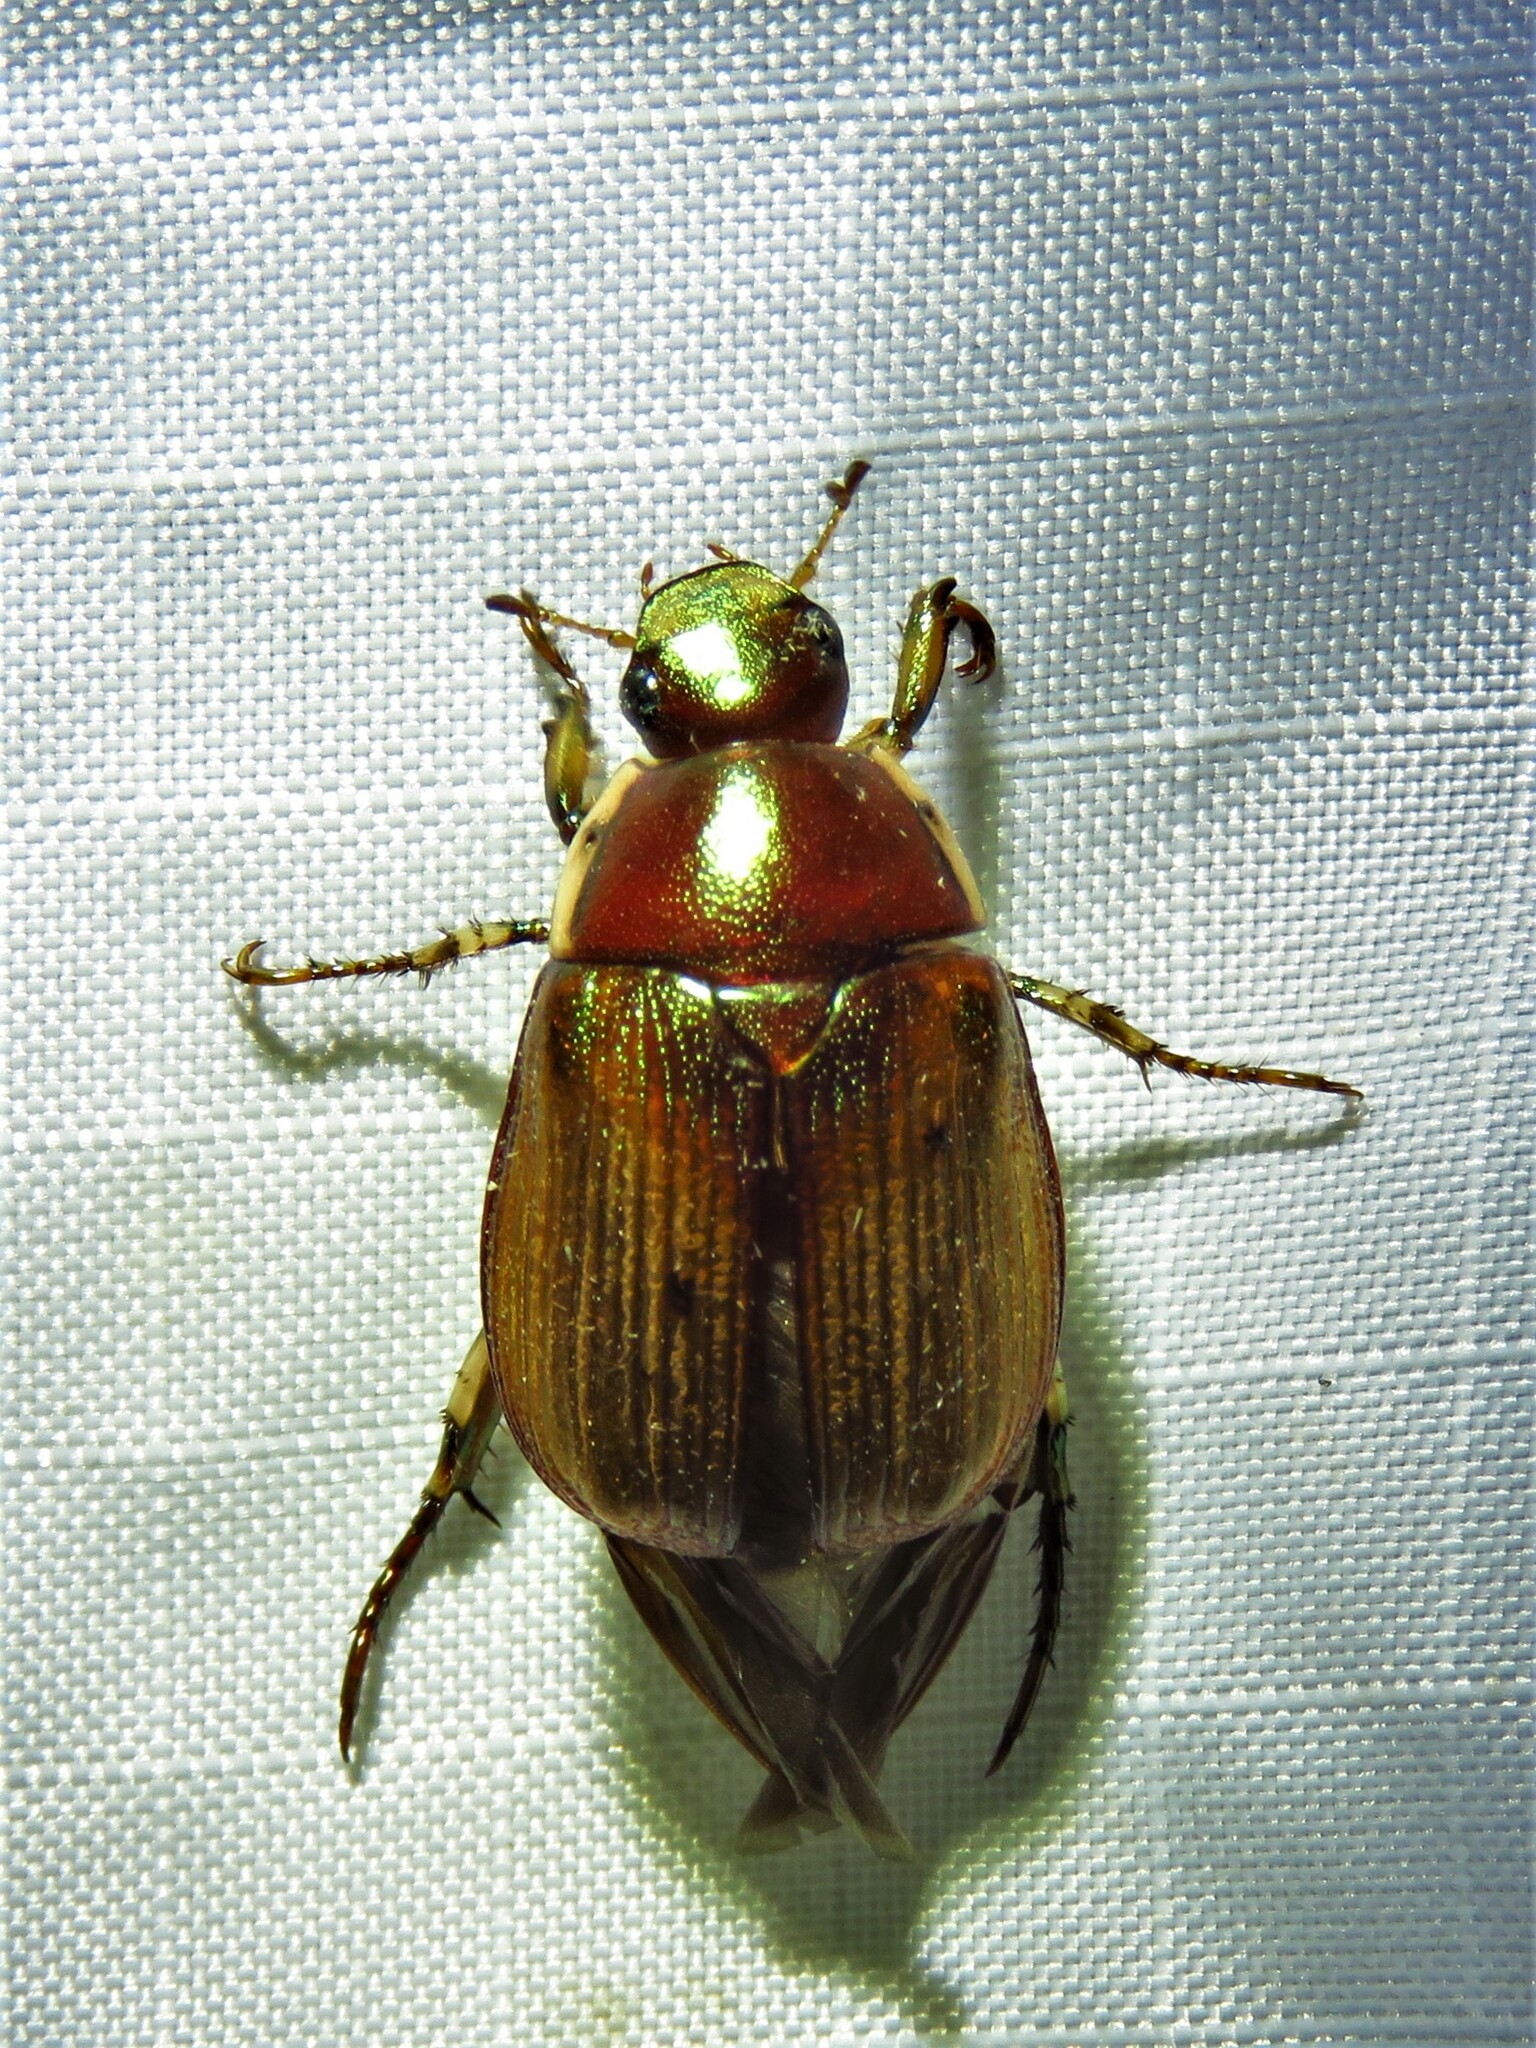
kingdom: Animalia
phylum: Arthropoda
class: Insecta
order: Coleoptera
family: Scarabaeidae
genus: Callistethus
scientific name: Callistethus marginatus
